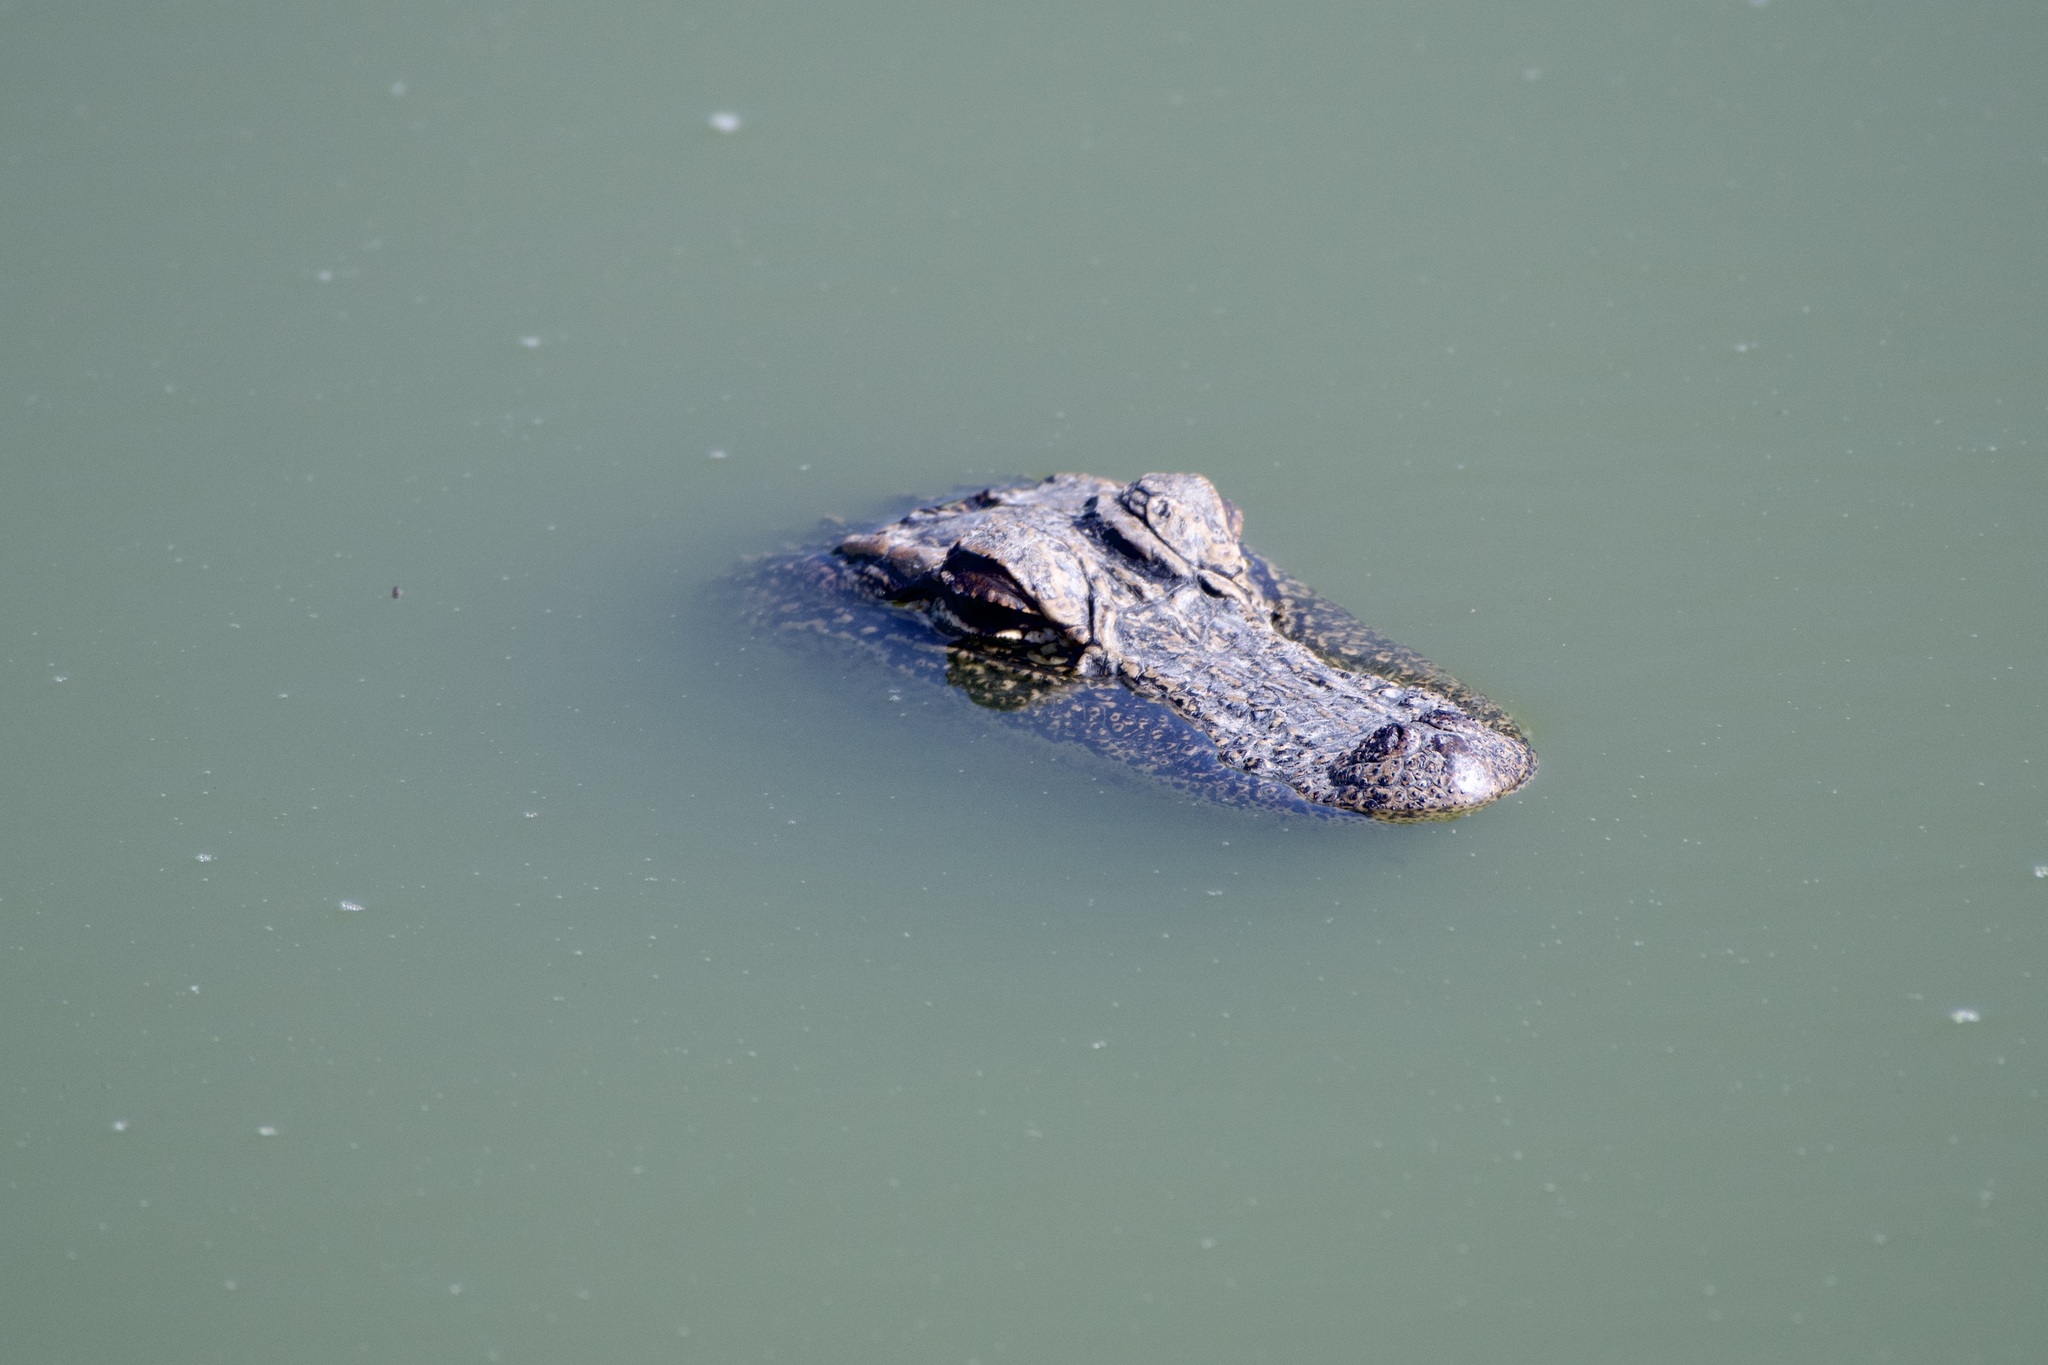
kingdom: Animalia
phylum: Chordata
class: Crocodylia
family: Alligatoridae
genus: Alligator
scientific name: Alligator mississippiensis
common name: American alligator
